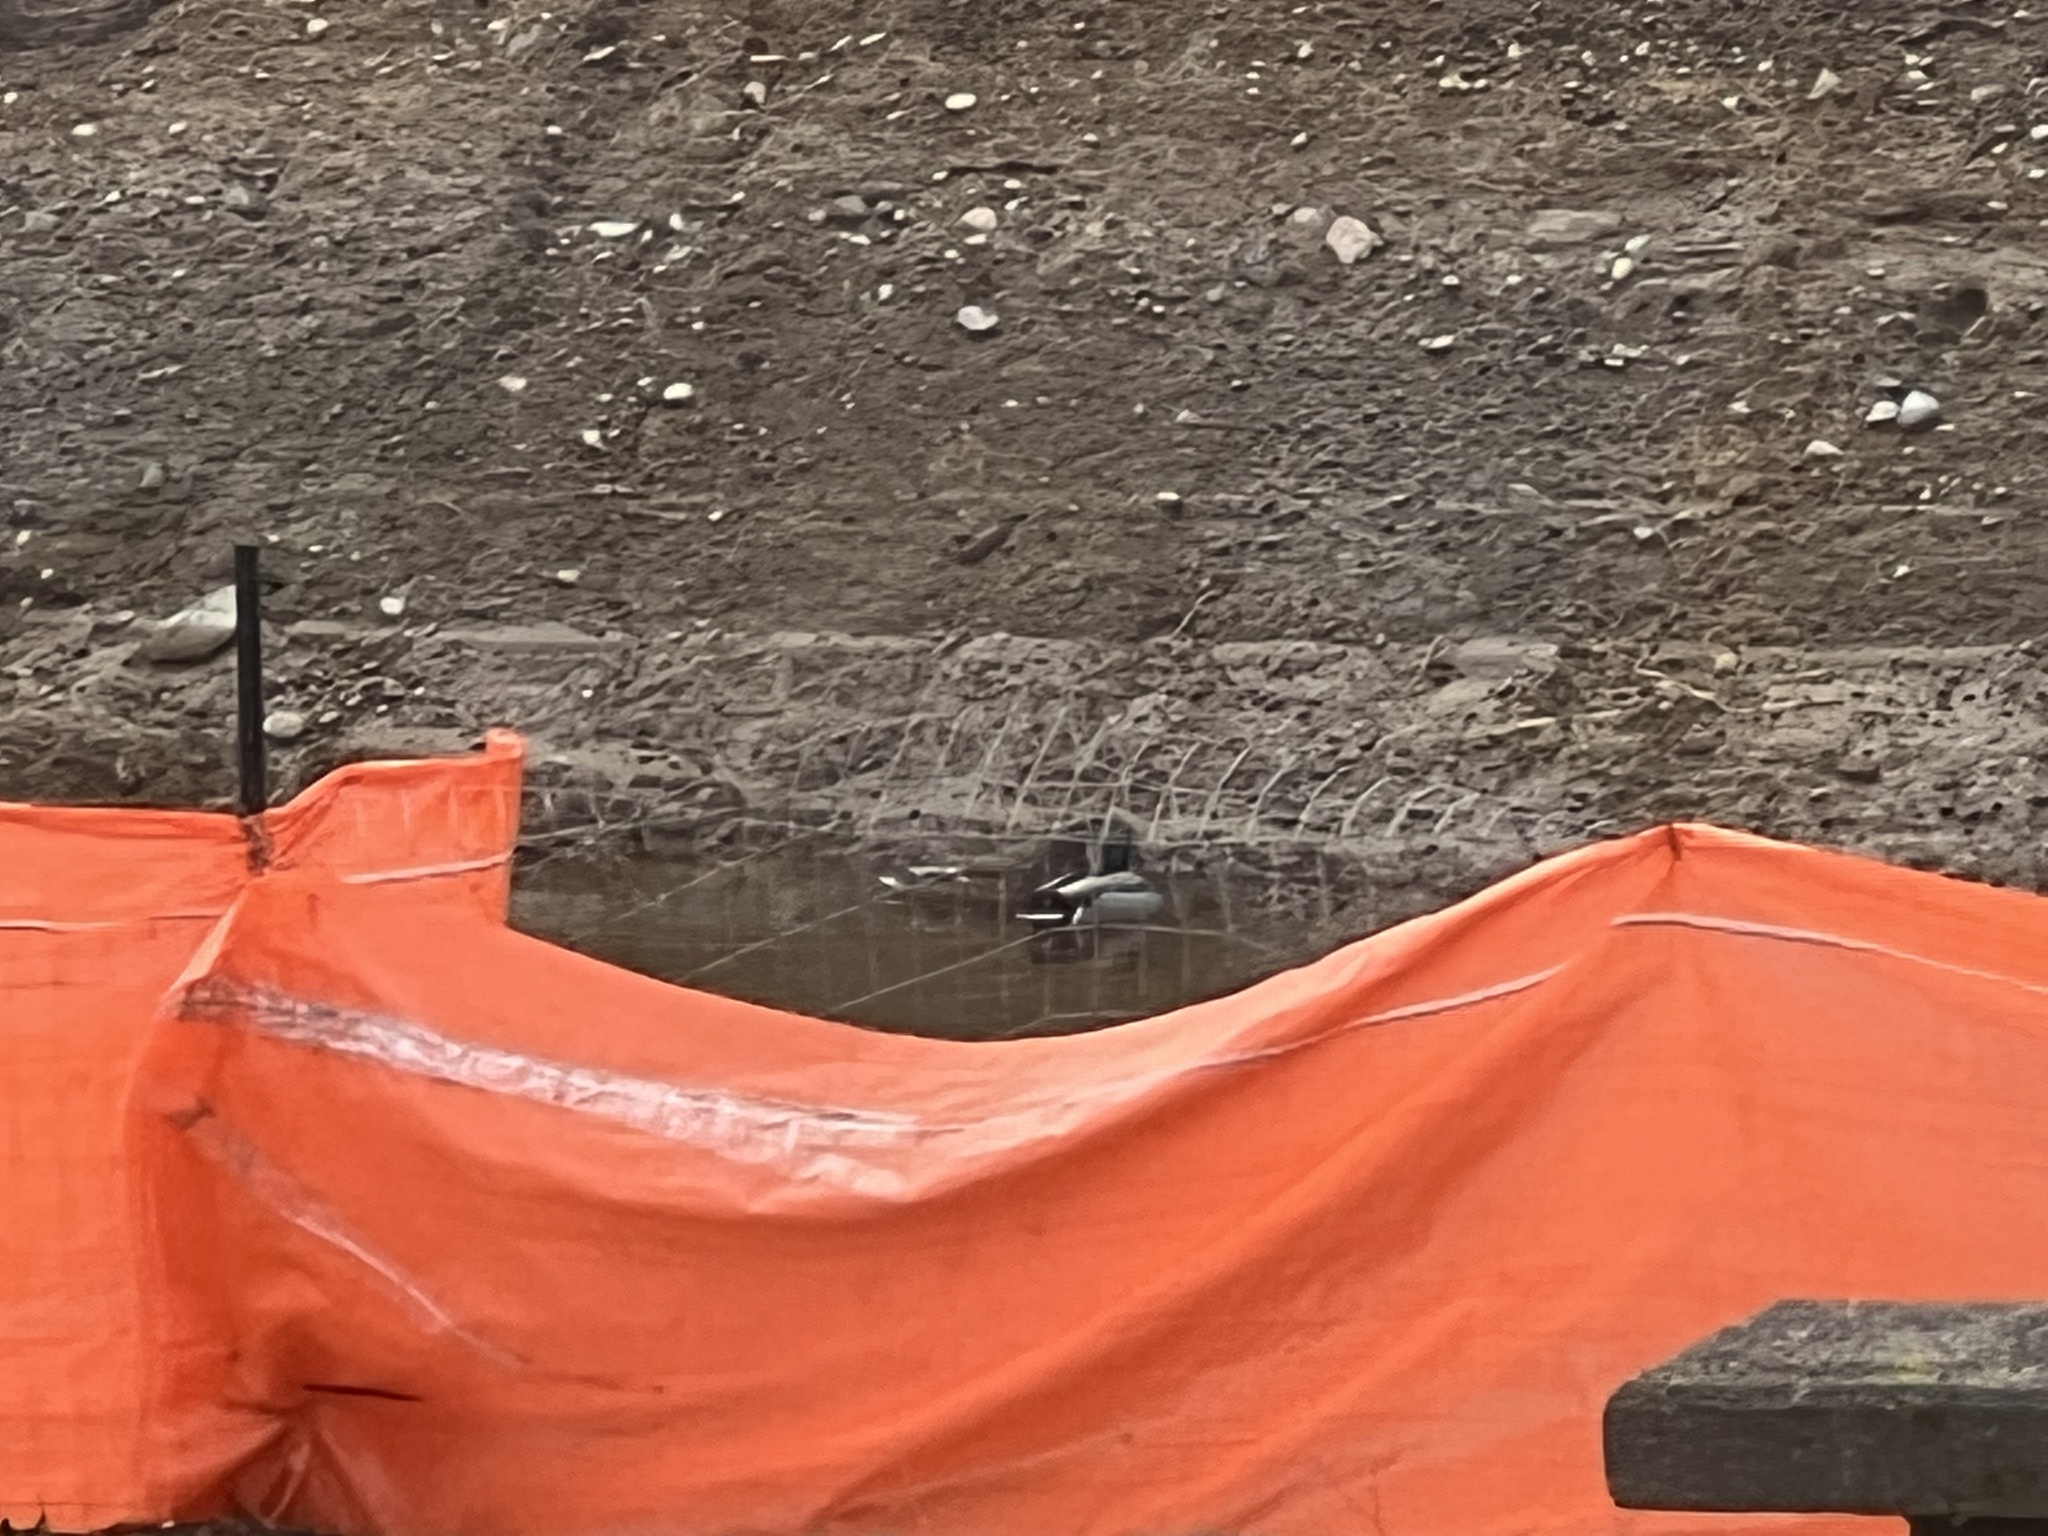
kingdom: Animalia
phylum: Chordata
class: Aves
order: Anseriformes
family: Anatidae
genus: Anas
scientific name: Anas platyrhynchos
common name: Mallard
